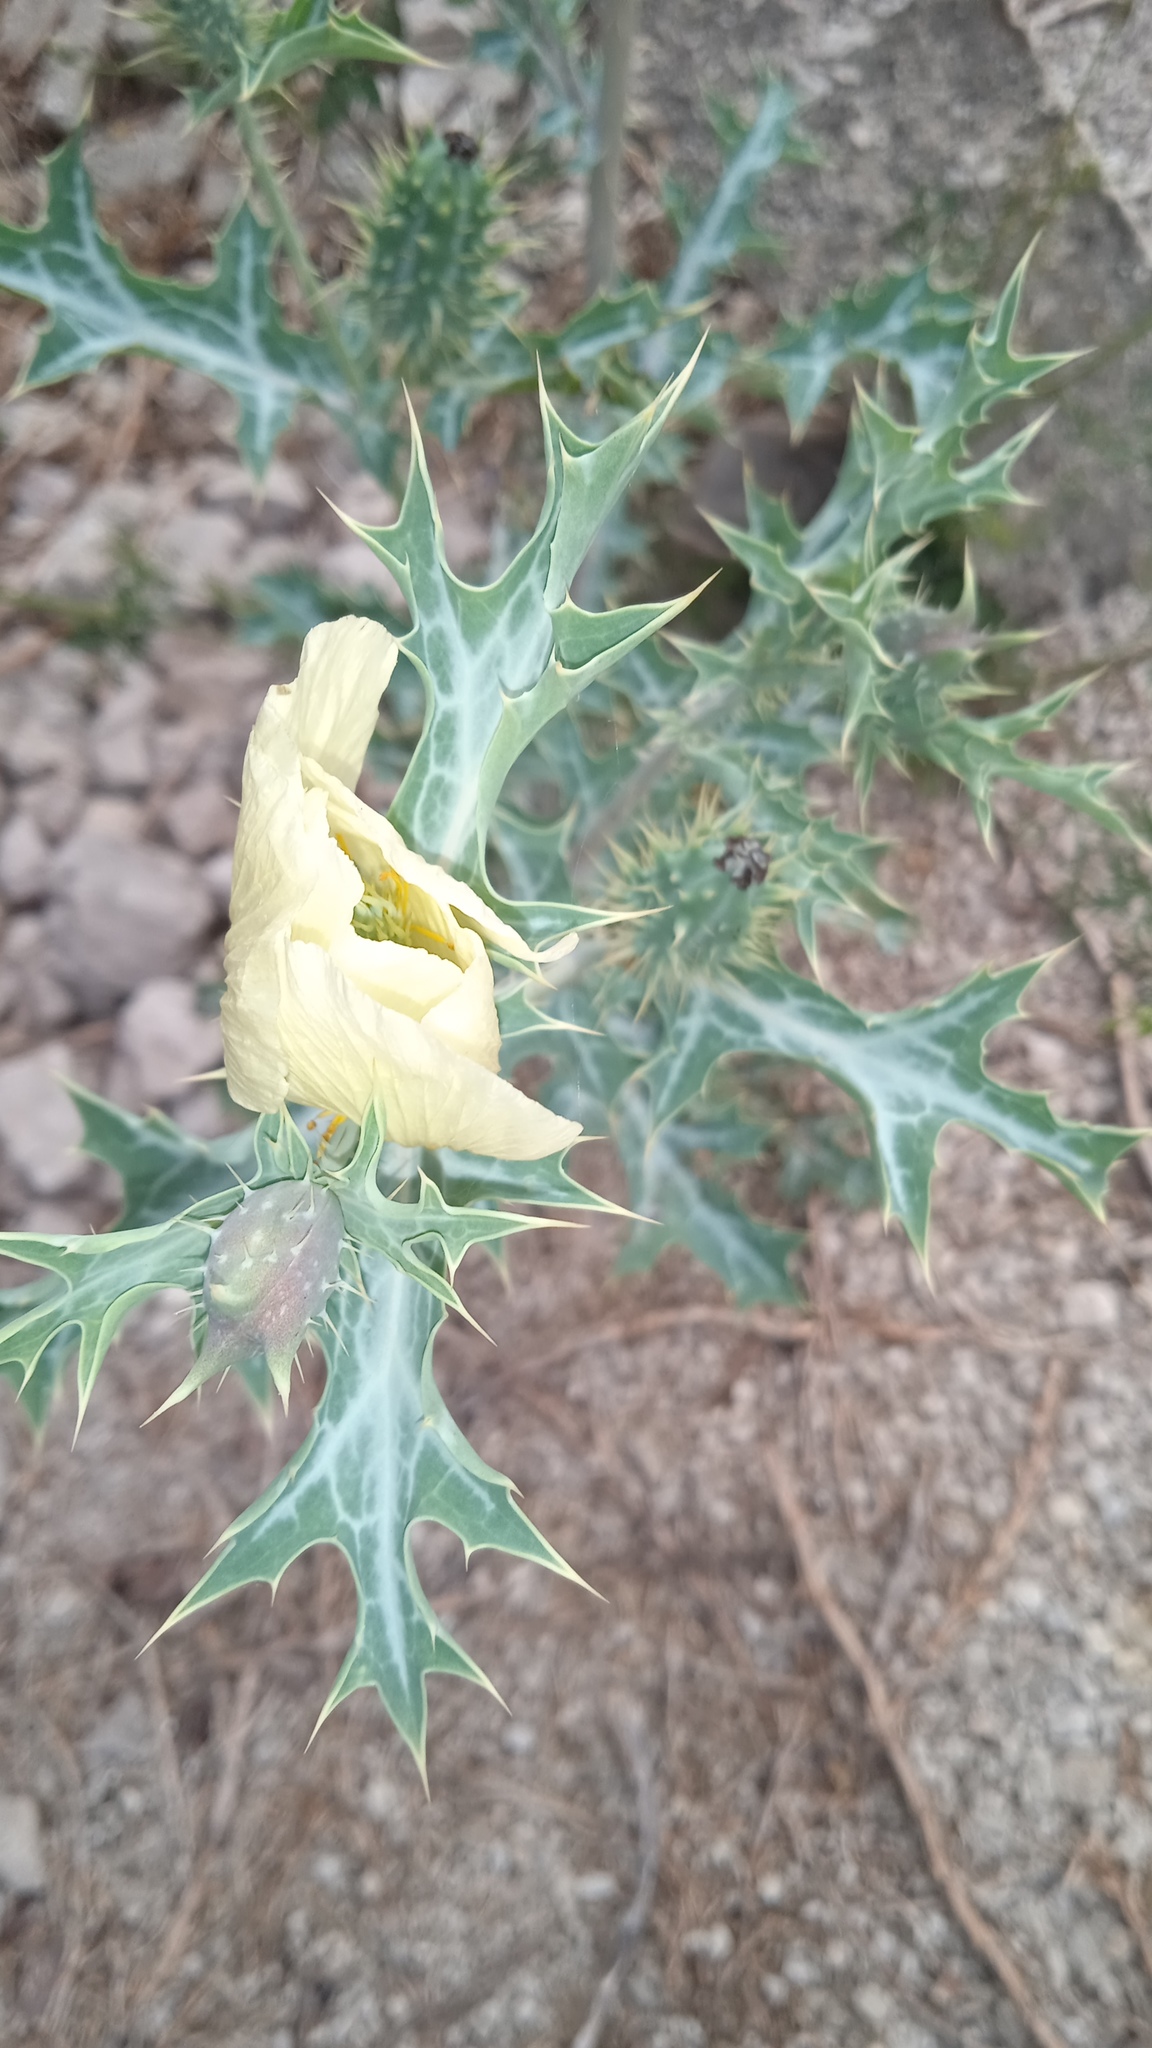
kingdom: Plantae
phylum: Tracheophyta
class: Magnoliopsida
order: Ranunculales
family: Papaveraceae
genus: Argemone
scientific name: Argemone ochroleuca
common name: White-flower mexican-poppy
